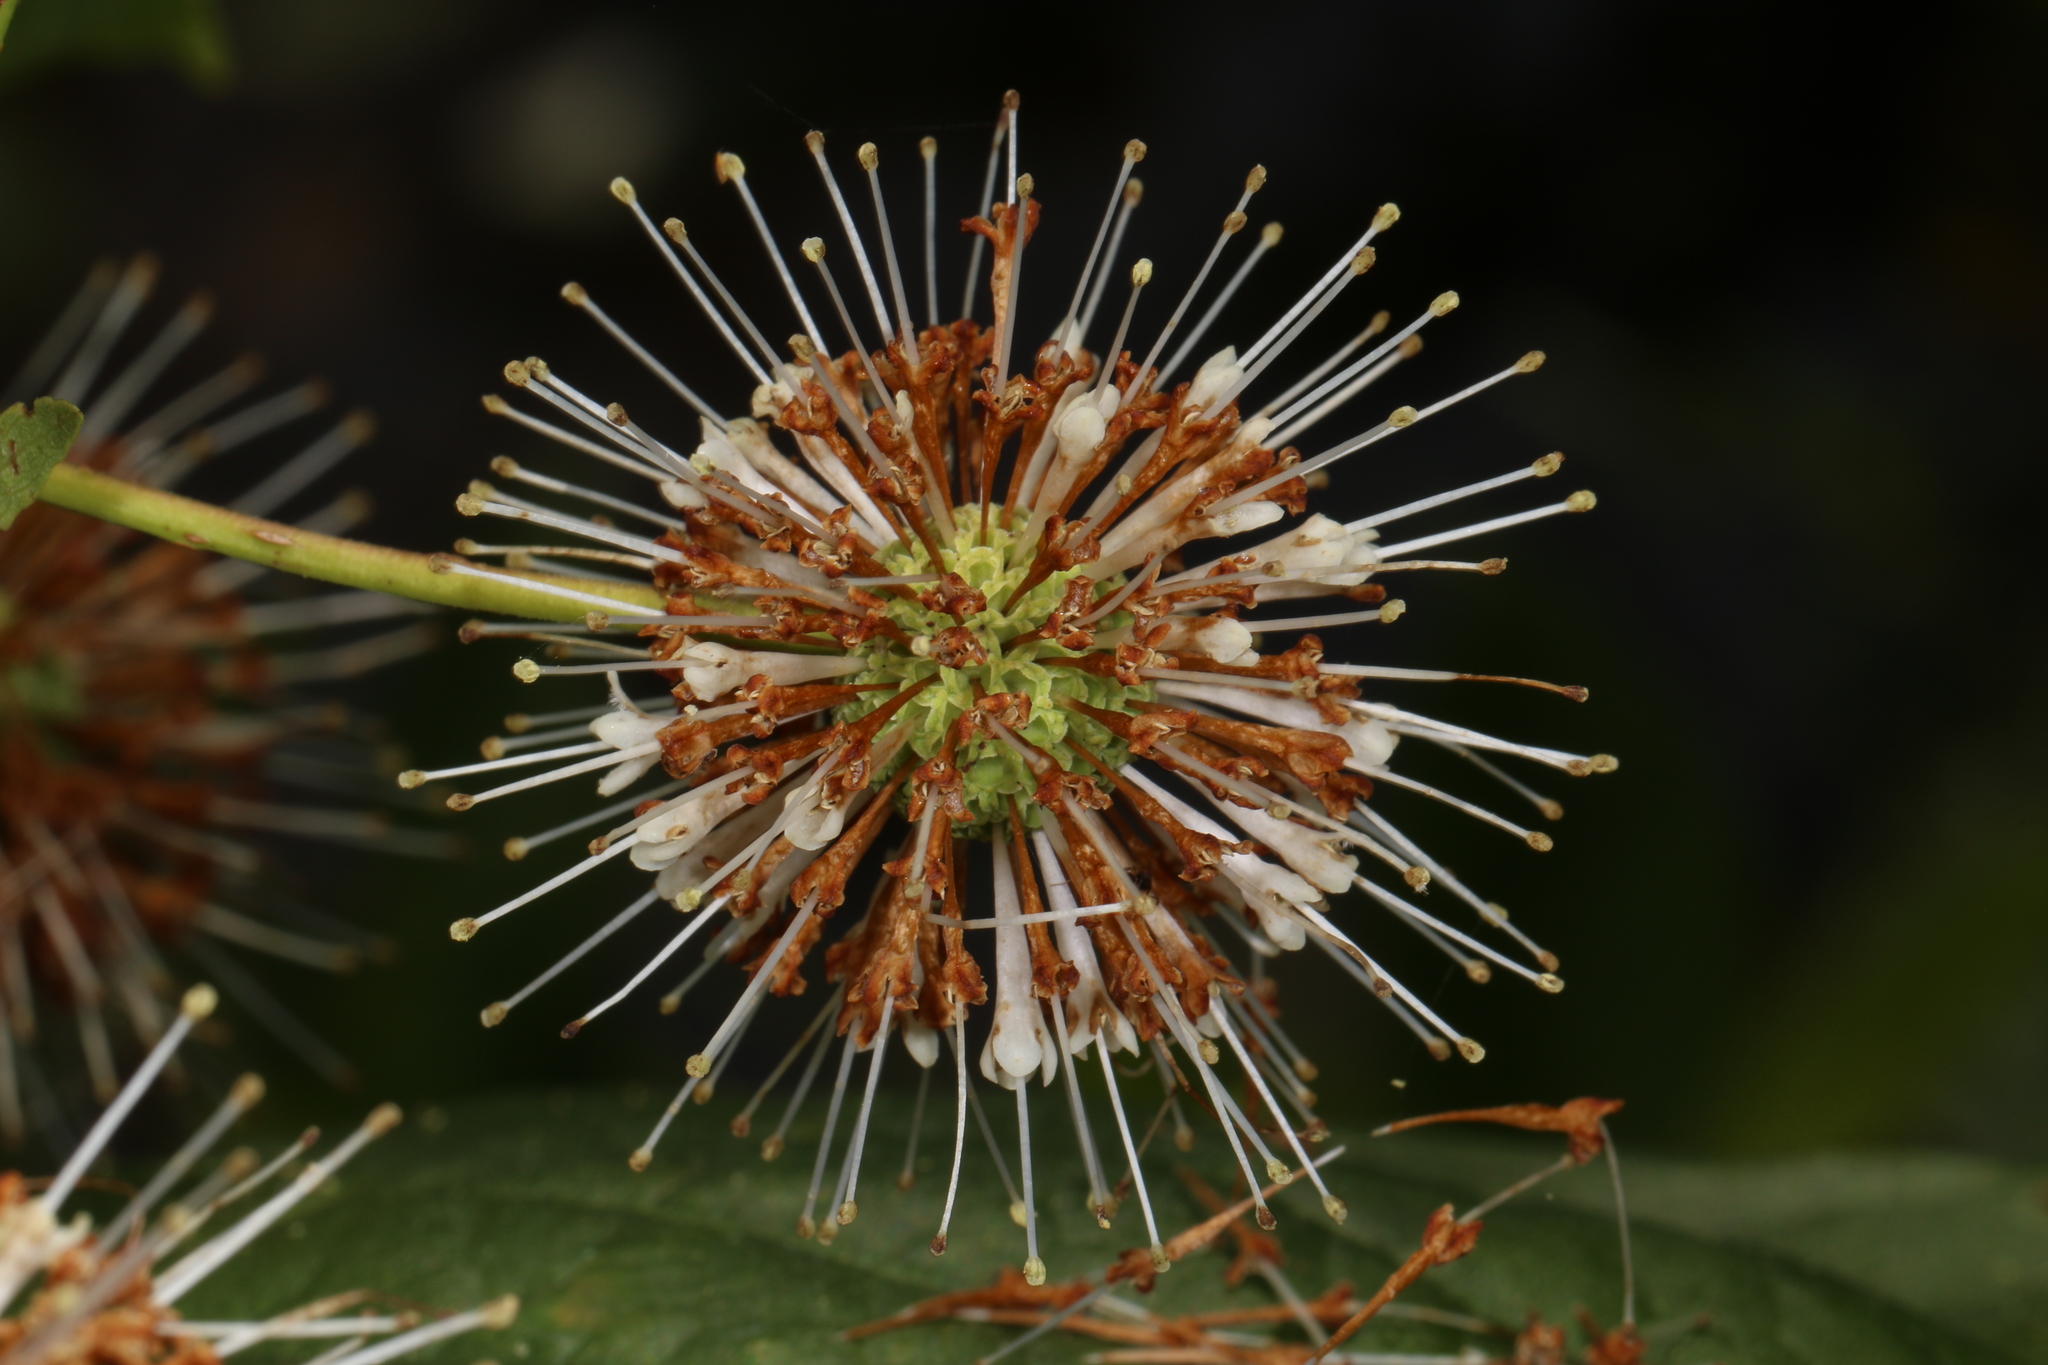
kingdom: Plantae
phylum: Tracheophyta
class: Magnoliopsida
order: Gentianales
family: Rubiaceae
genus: Cephalanthus
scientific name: Cephalanthus occidentalis
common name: Button-willow
